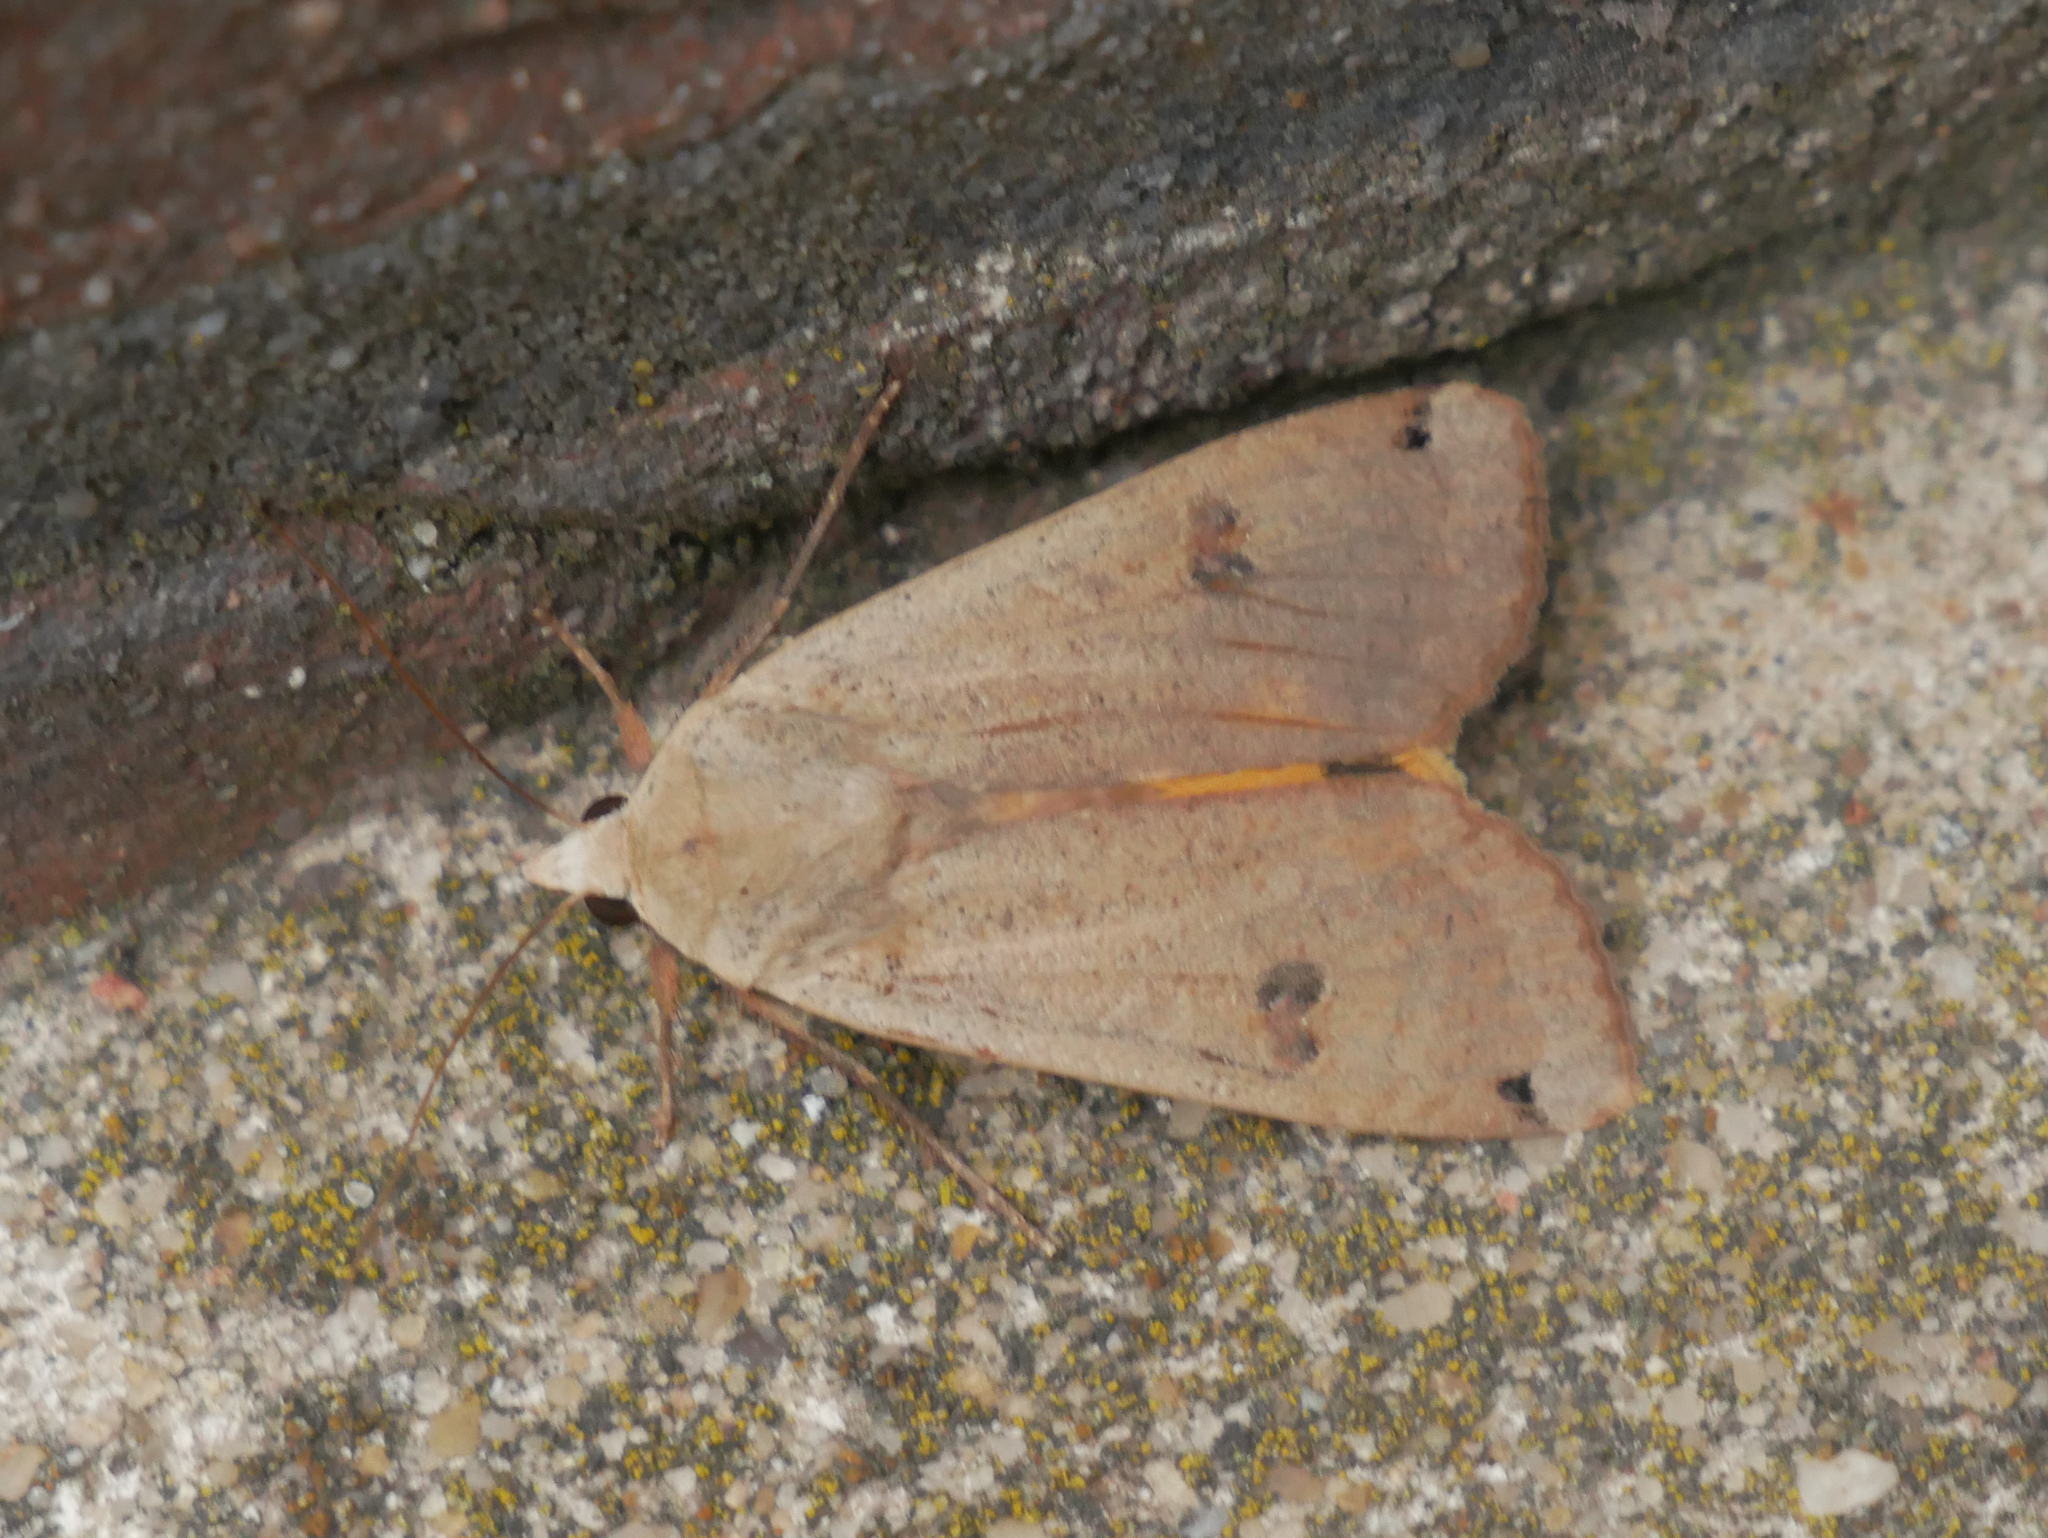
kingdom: Animalia
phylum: Arthropoda
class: Insecta
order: Lepidoptera
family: Noctuidae
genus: Noctua
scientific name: Noctua pronuba
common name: Large yellow underwing
